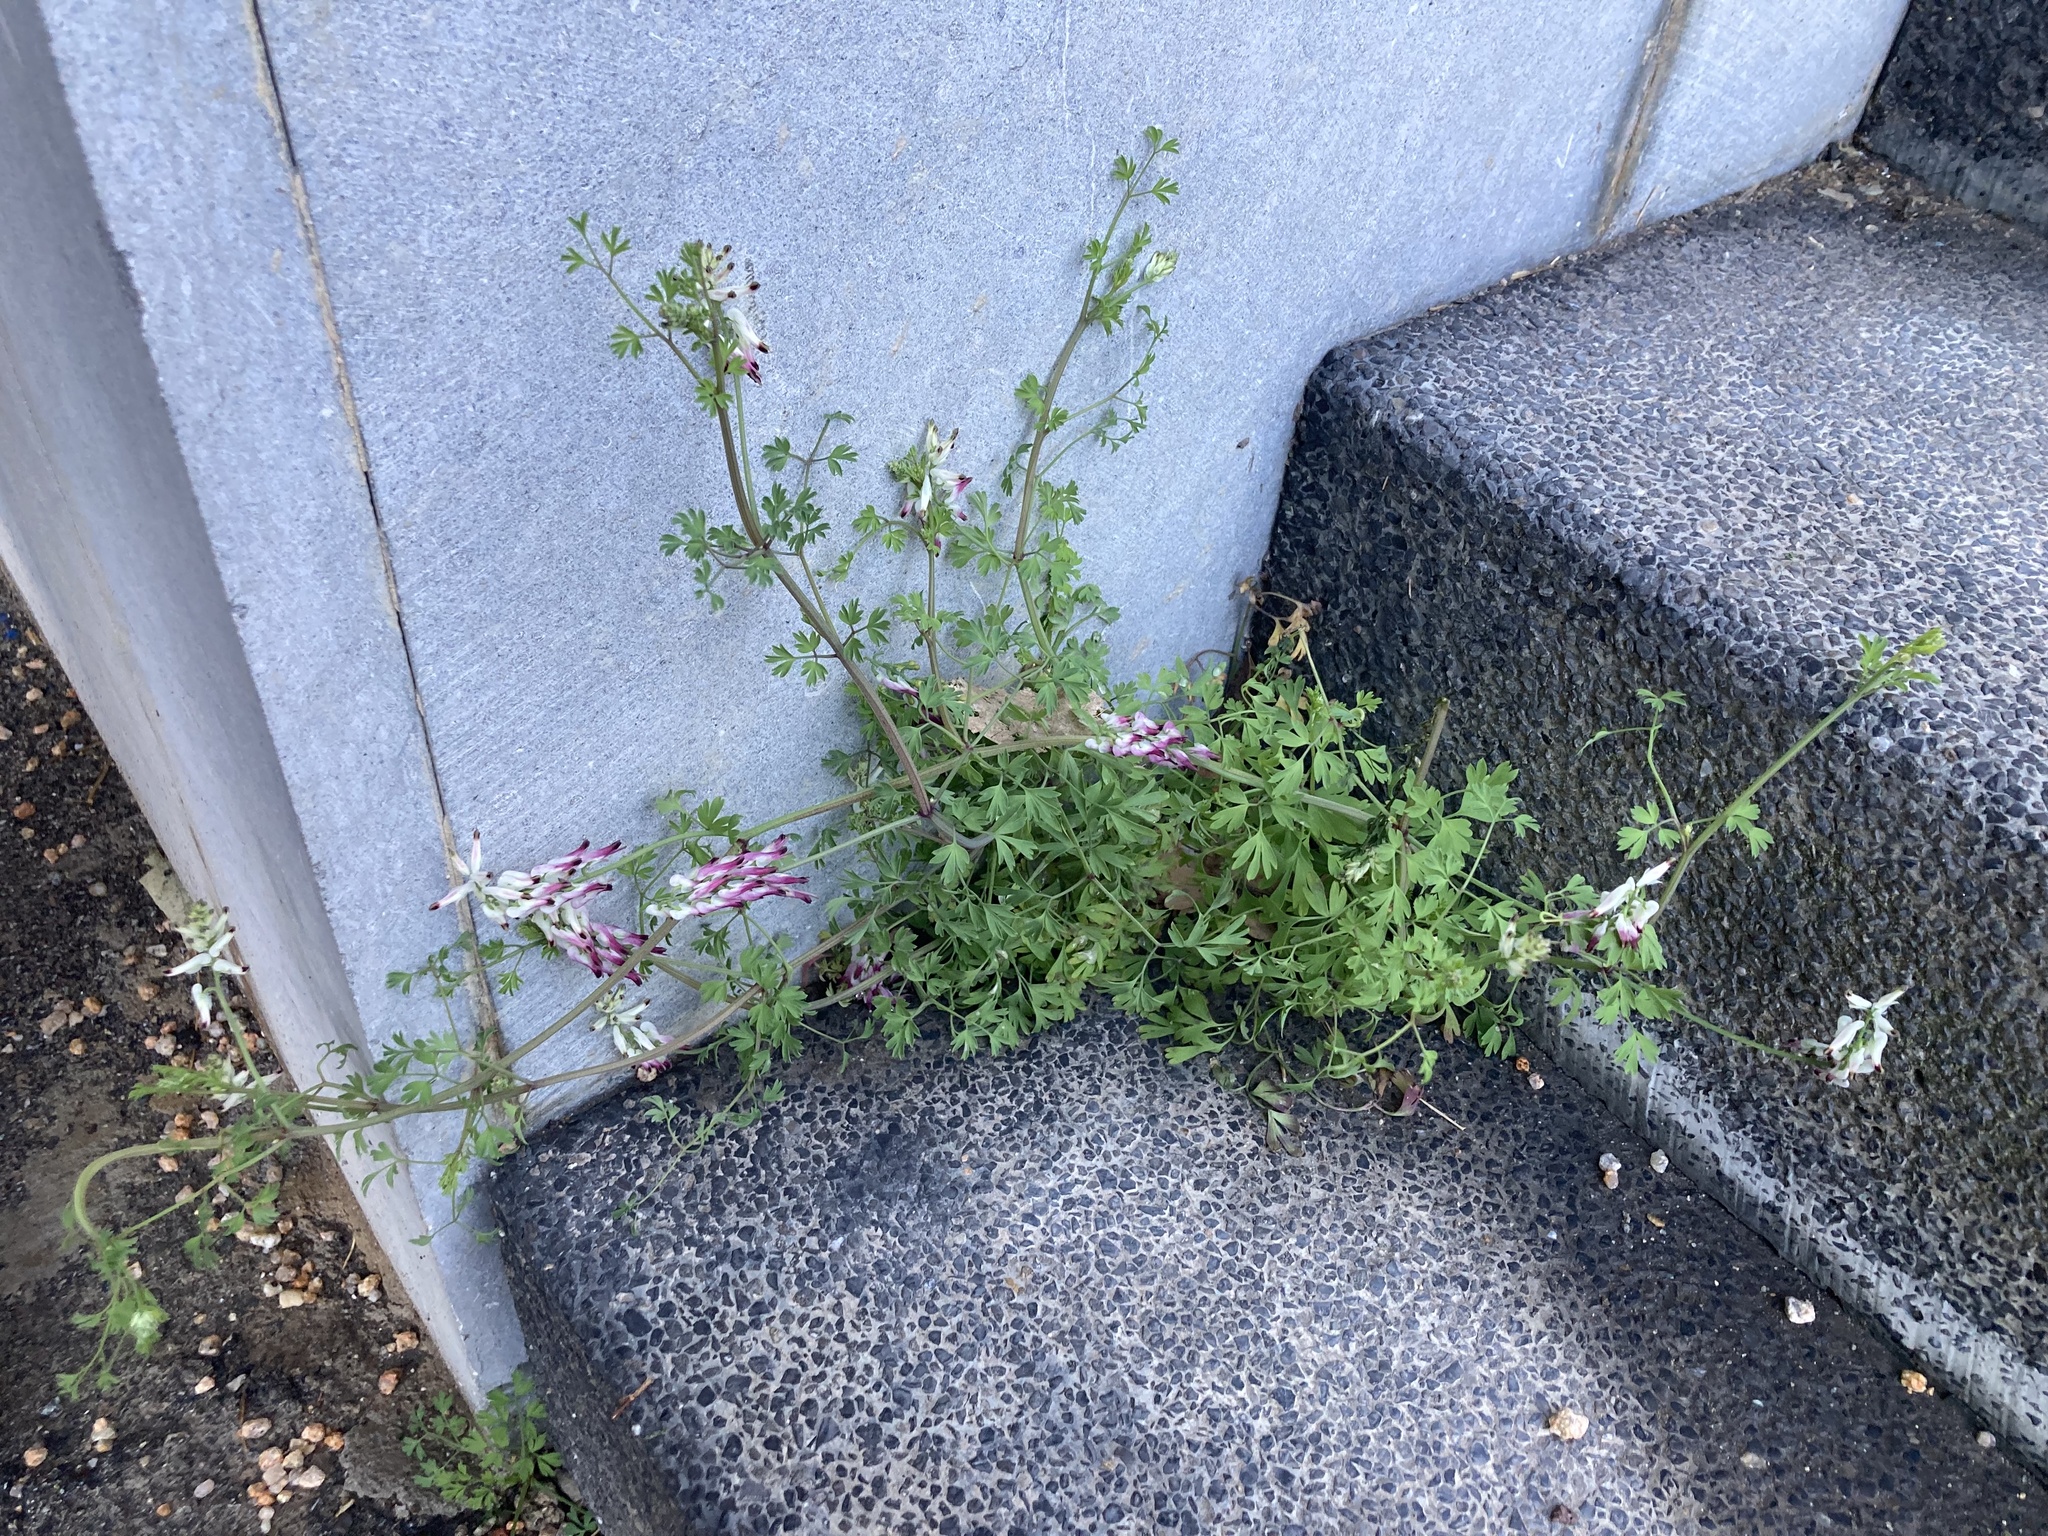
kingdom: Plantae
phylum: Tracheophyta
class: Magnoliopsida
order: Ranunculales
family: Papaveraceae
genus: Fumaria
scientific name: Fumaria capreolata
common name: White ramping-fumitory
